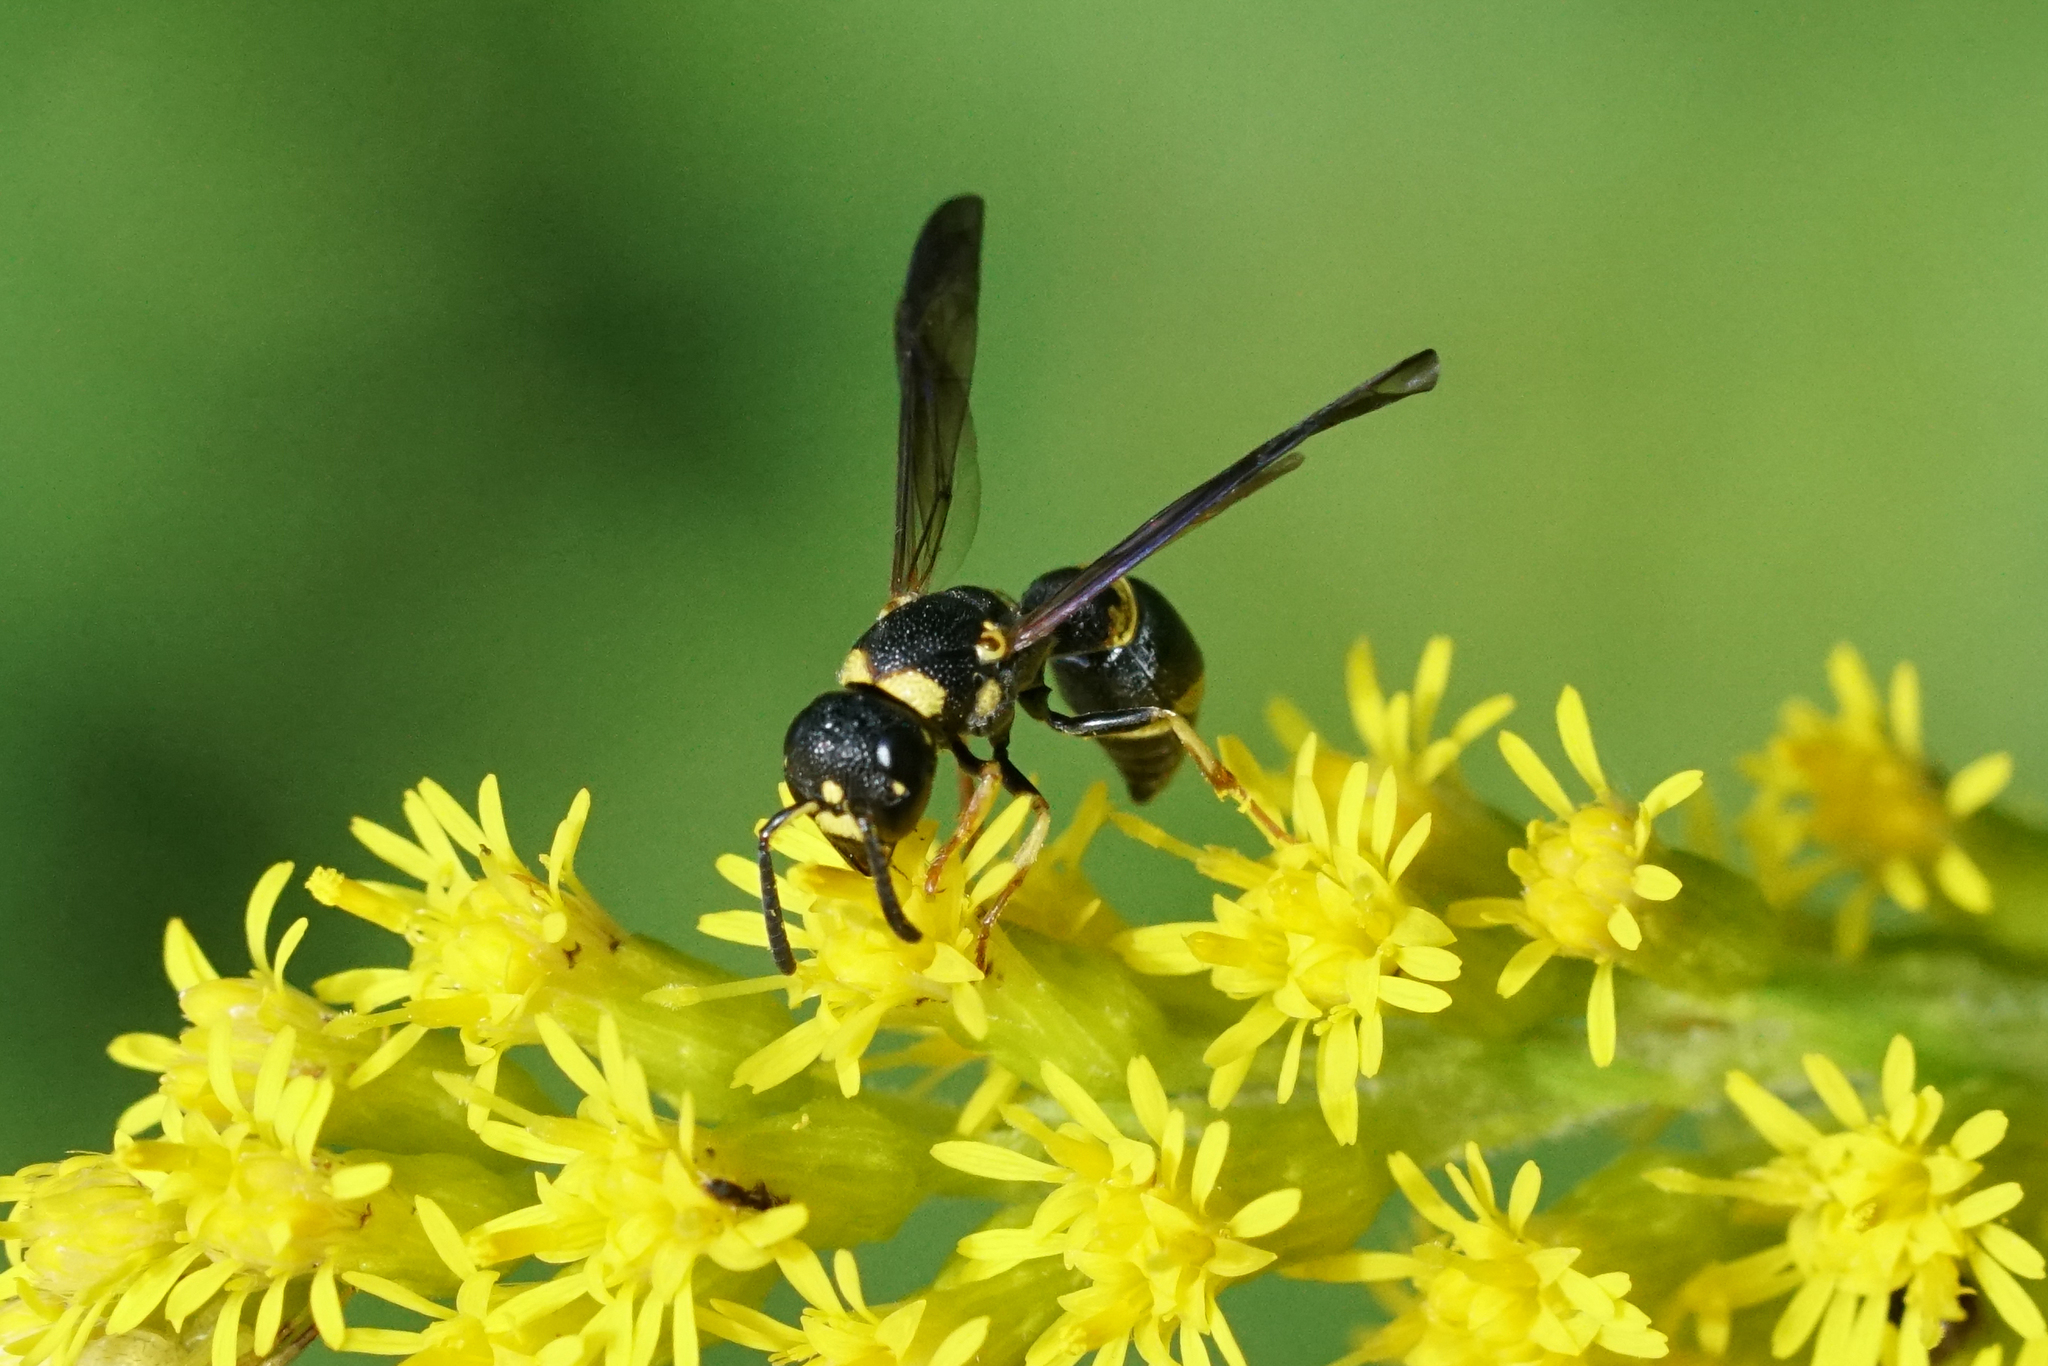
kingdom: Animalia
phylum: Arthropoda
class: Insecta
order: Hymenoptera
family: Eumenidae
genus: Parancistrocerus
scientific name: Parancistrocerus perennis
